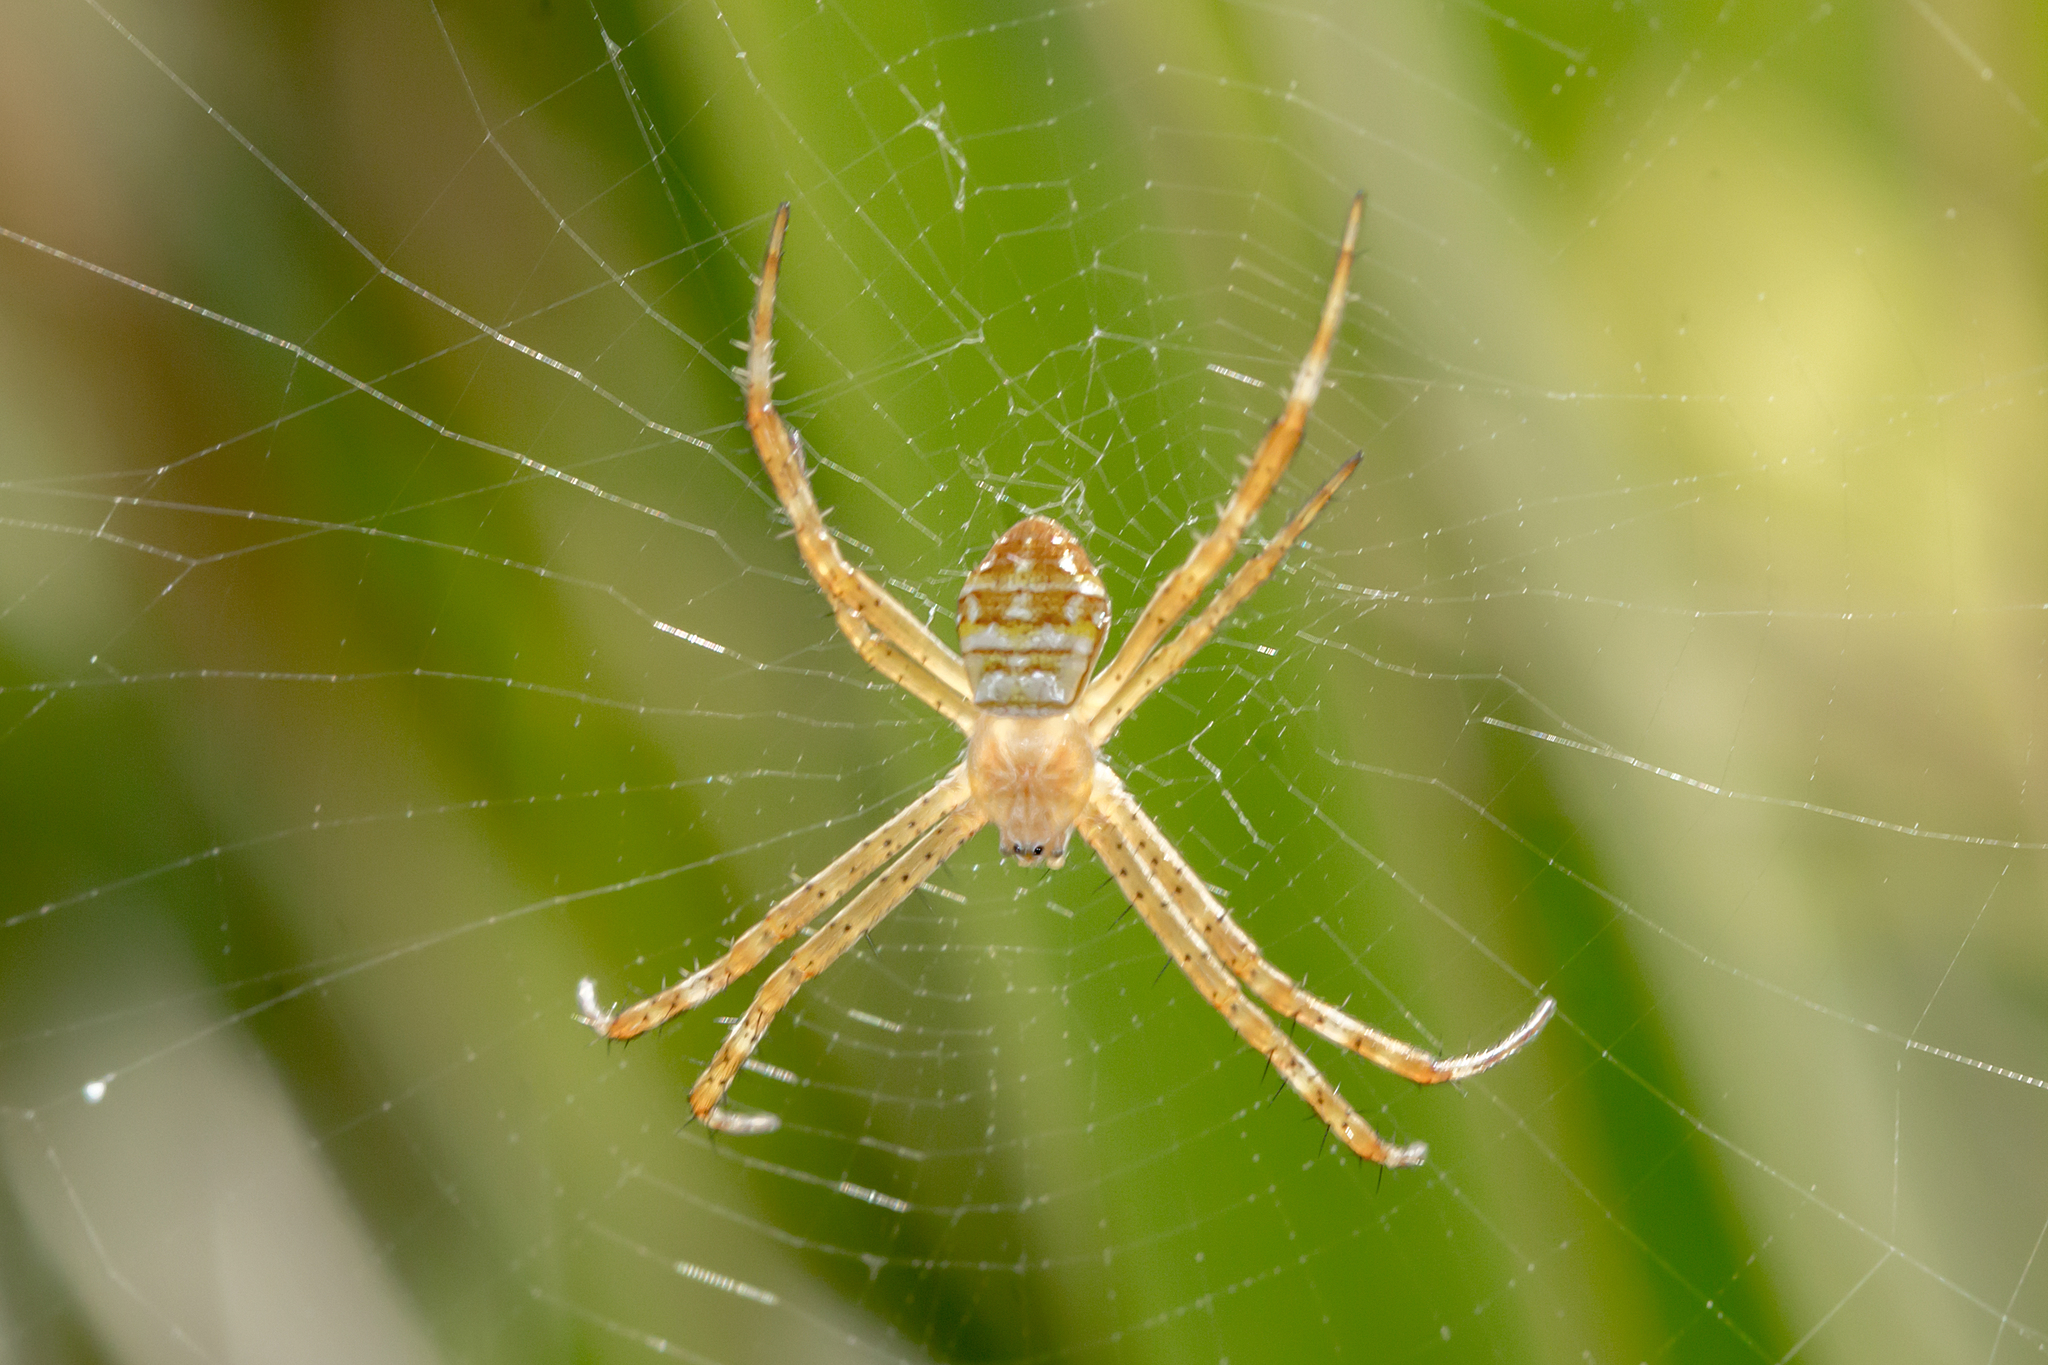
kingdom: Animalia
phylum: Arthropoda
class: Arachnida
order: Araneae
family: Araneidae
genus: Argiope
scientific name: Argiope keyserlingi
